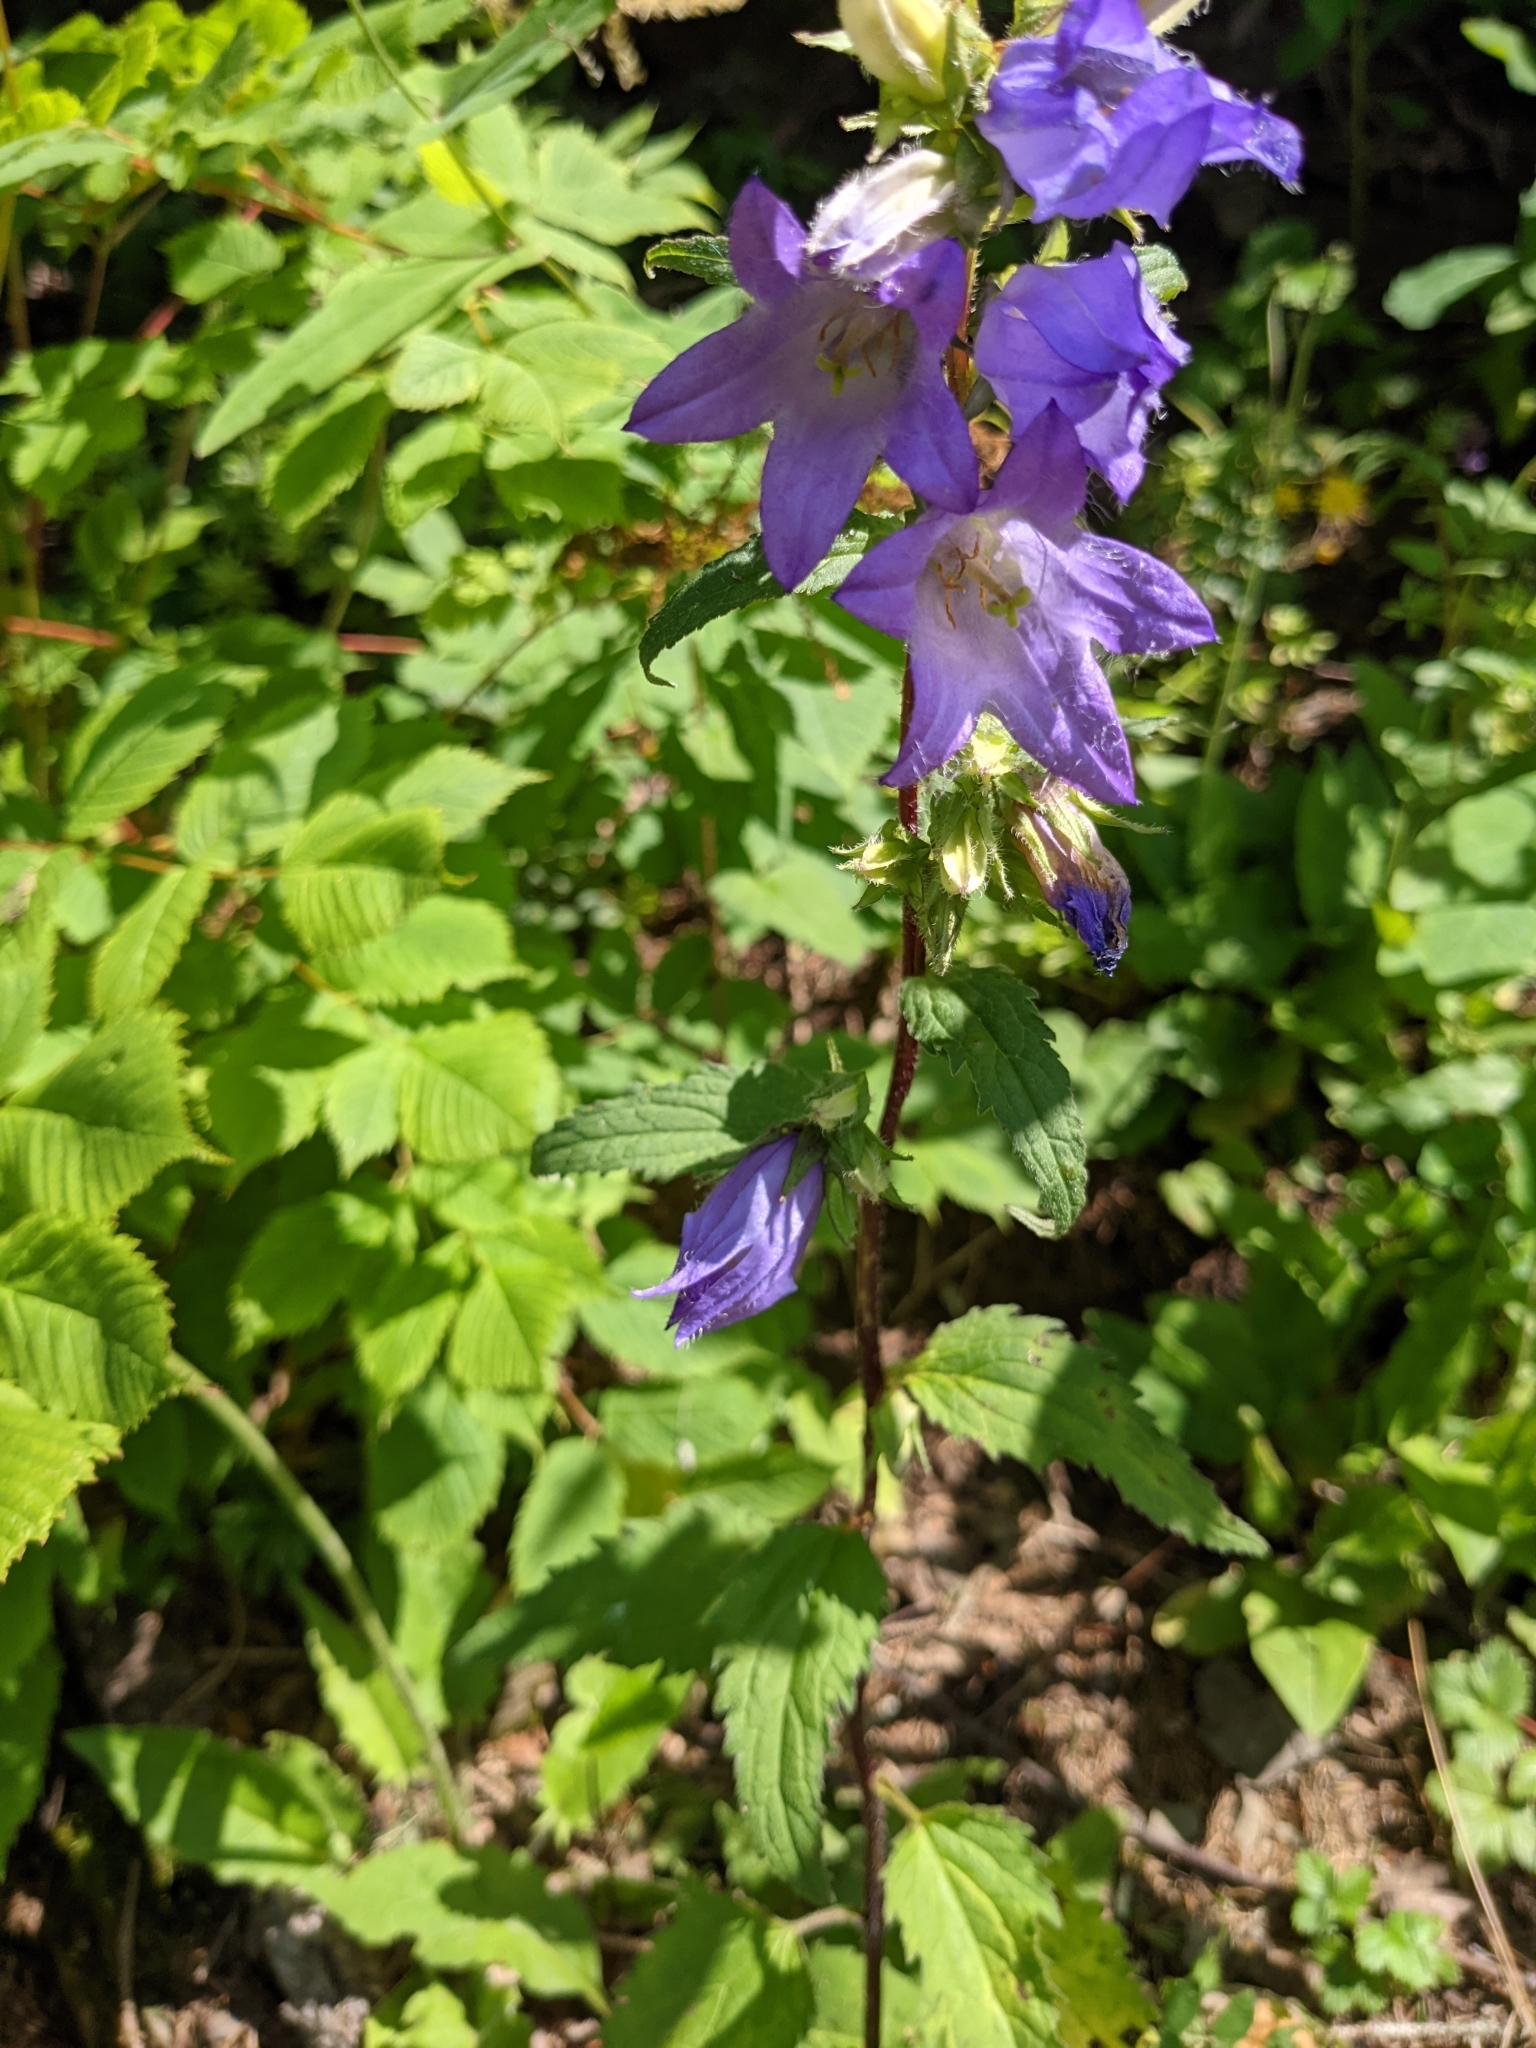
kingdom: Plantae
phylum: Tracheophyta
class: Magnoliopsida
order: Asterales
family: Campanulaceae
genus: Campanula
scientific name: Campanula trachelium
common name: Nettle-leaved bellflower
